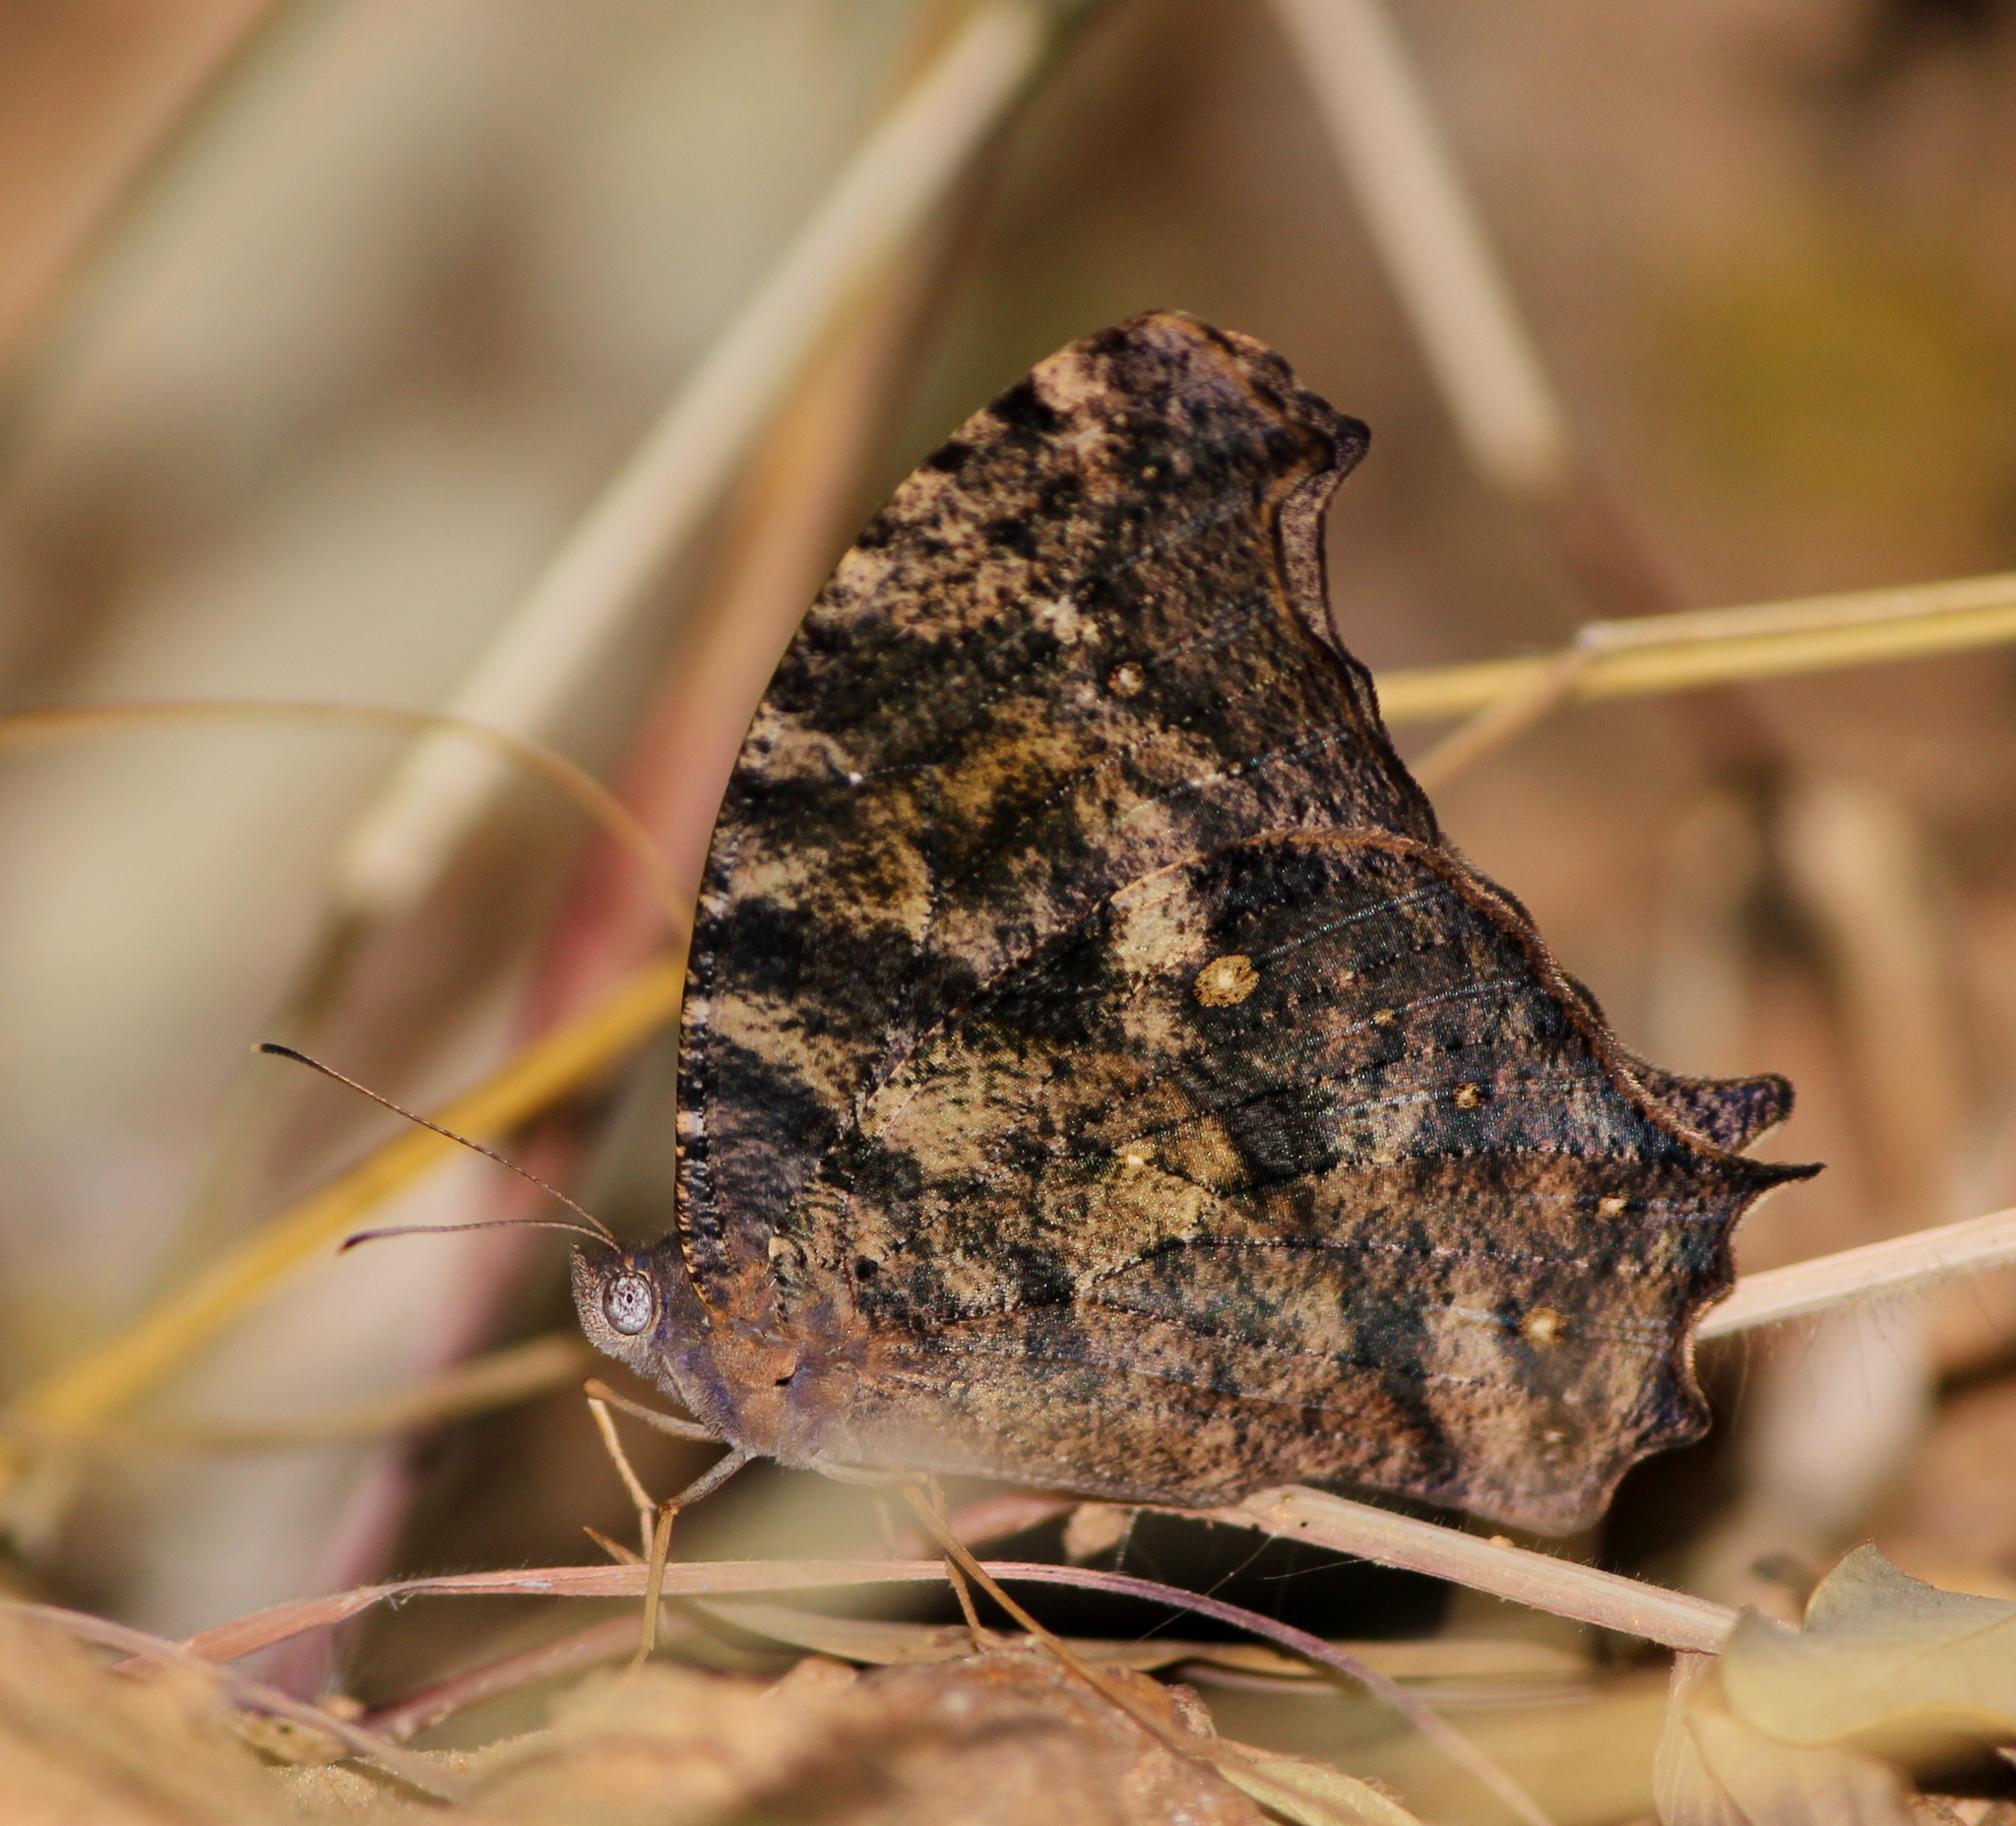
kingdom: Animalia
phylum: Arthropoda
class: Insecta
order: Lepidoptera
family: Nymphalidae
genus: Melanitis
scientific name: Melanitis leda
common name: Twilight brown
